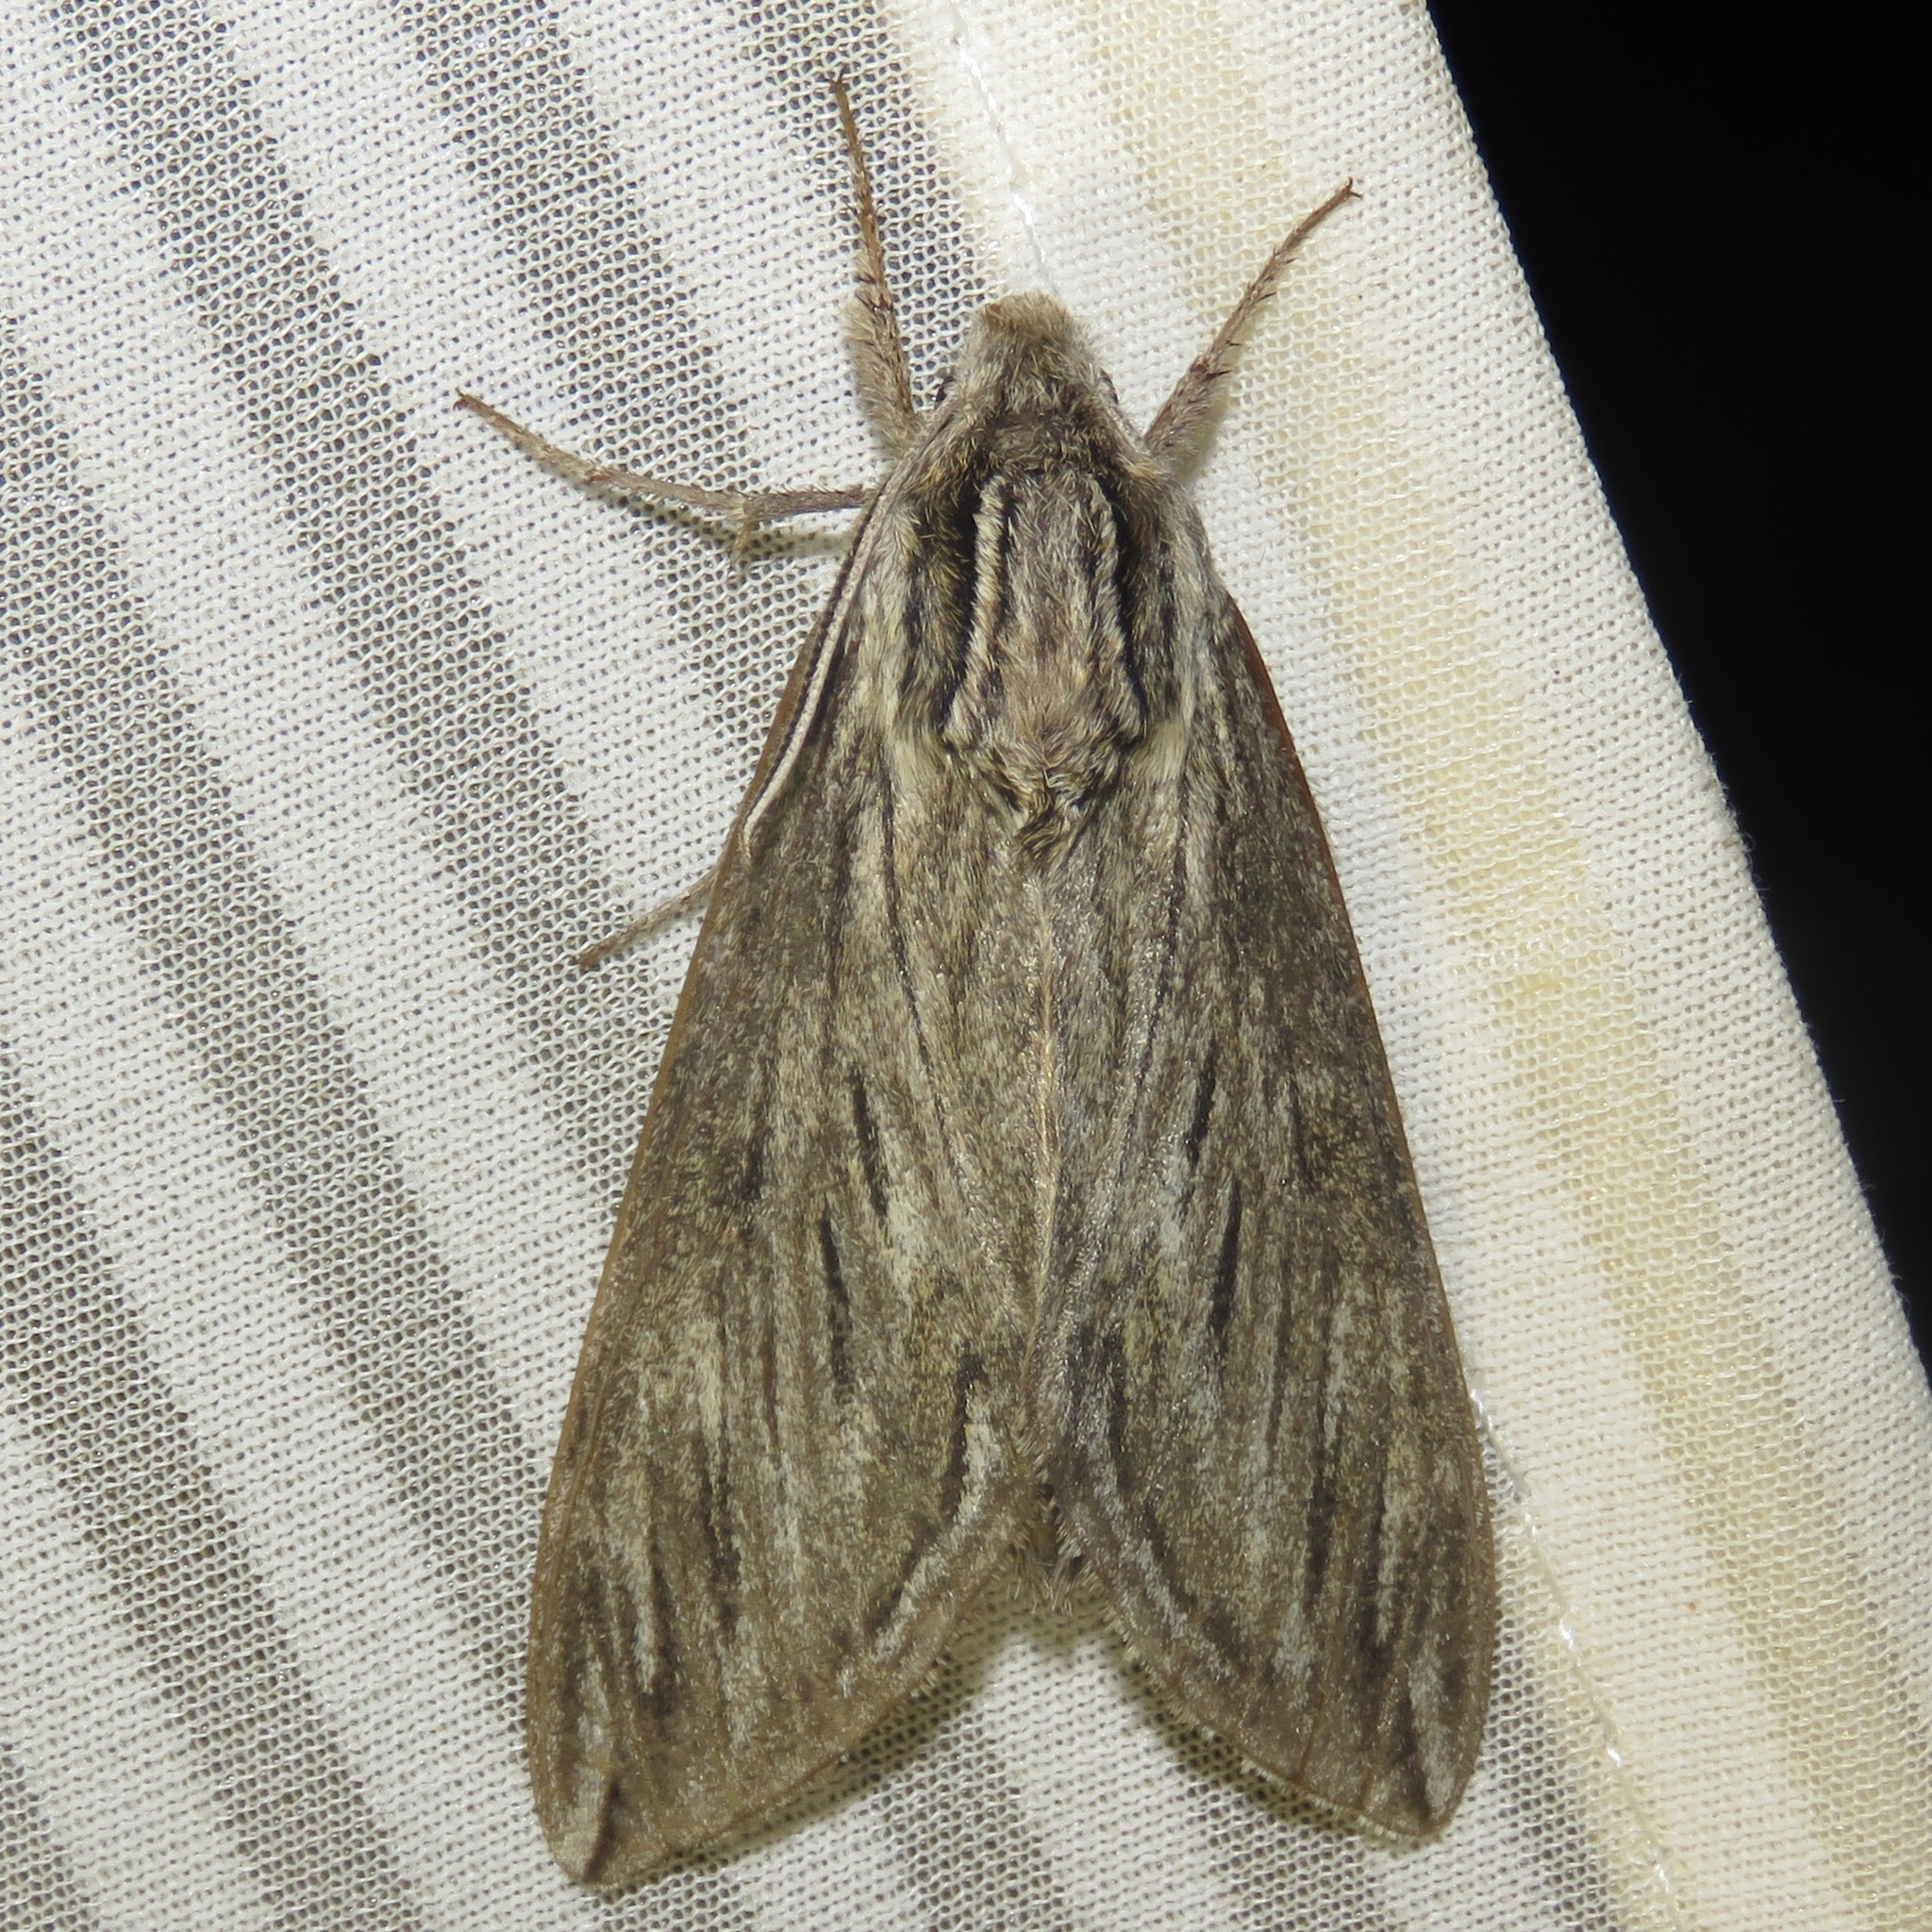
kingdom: Animalia
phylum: Arthropoda
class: Insecta
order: Lepidoptera
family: Sphingidae
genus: Sphinx
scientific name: Sphinx canadensis
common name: Canadian sphinx
